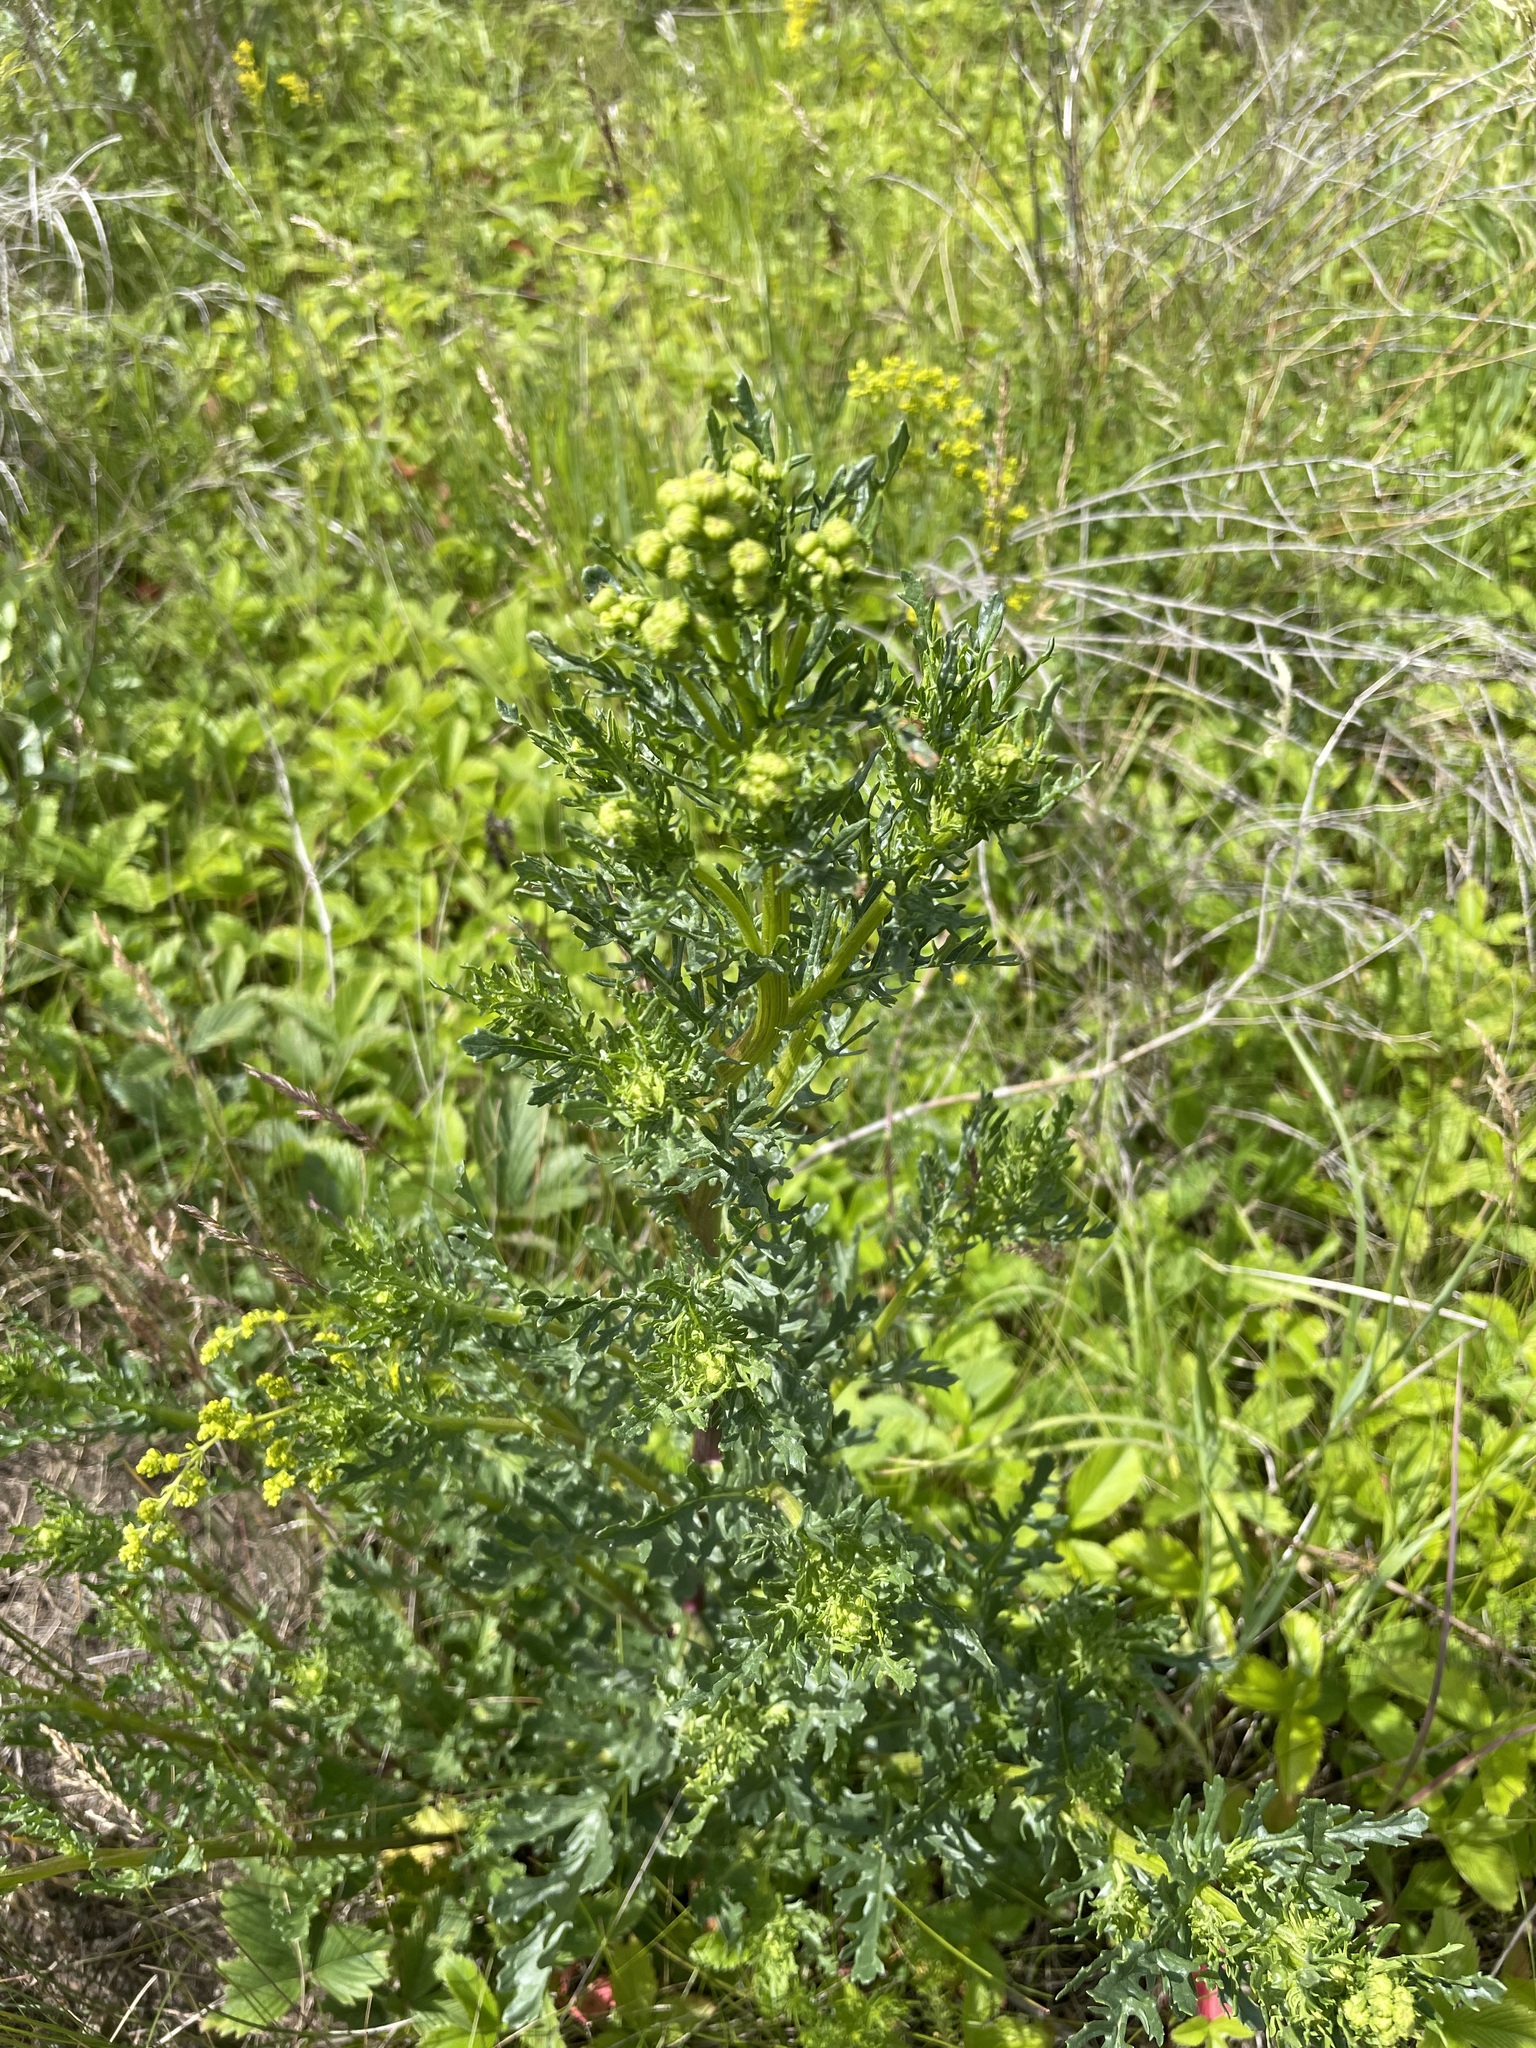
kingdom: Plantae
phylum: Tracheophyta
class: Magnoliopsida
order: Asterales
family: Asteraceae
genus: Jacobaea
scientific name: Jacobaea vulgaris
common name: Stinking willie
